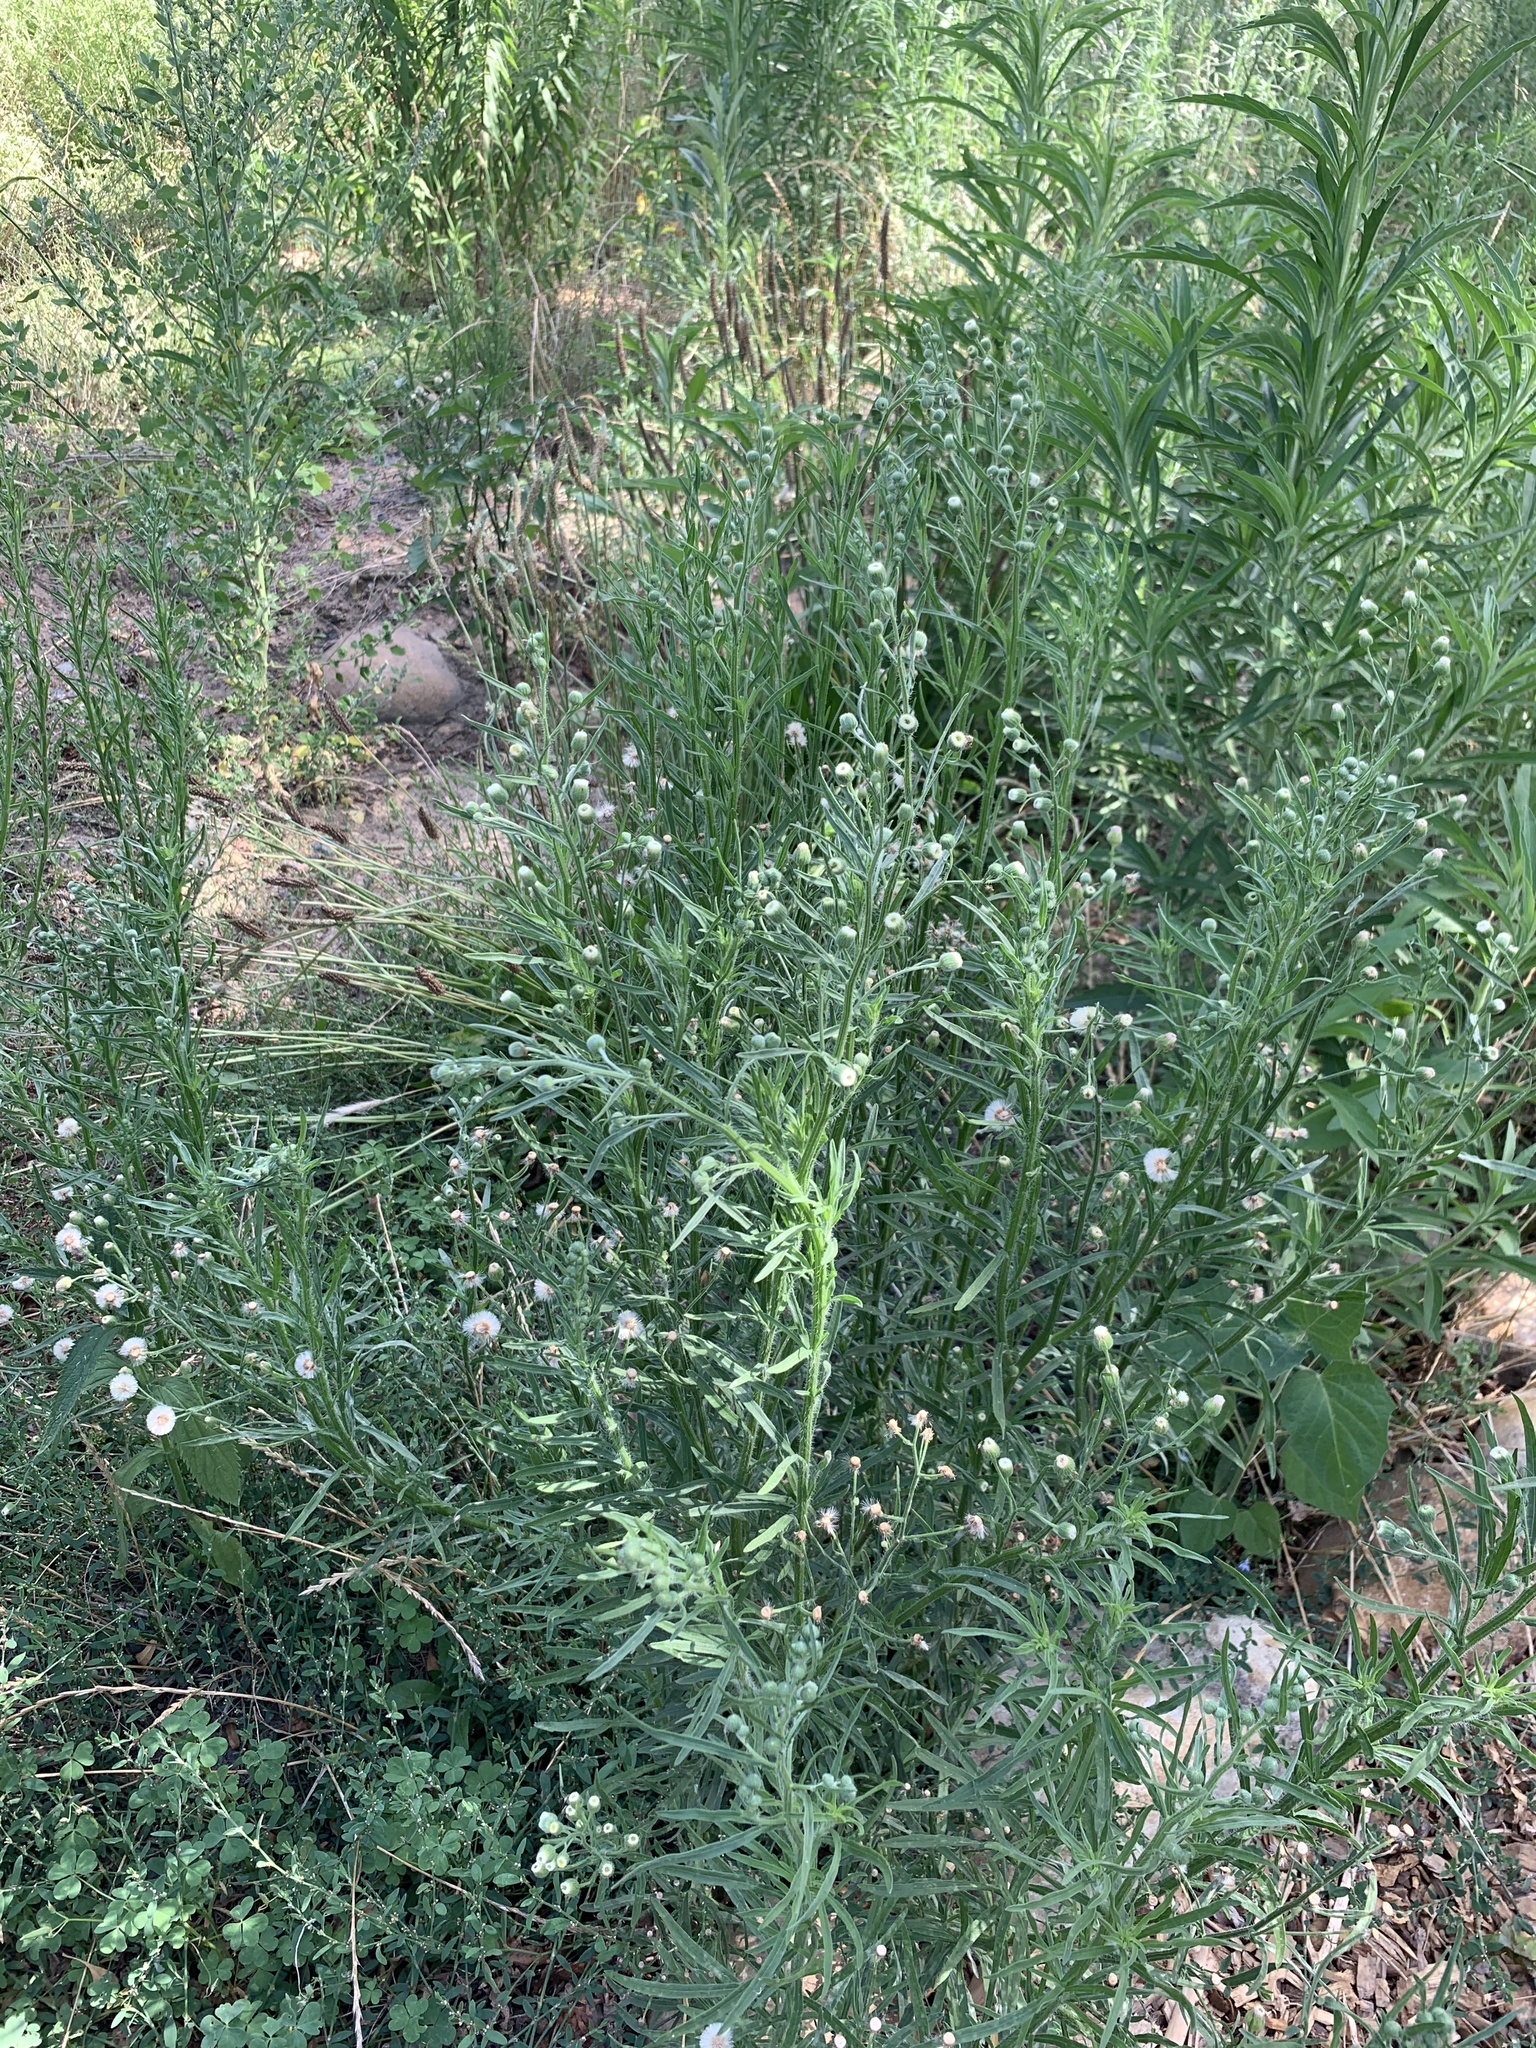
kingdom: Plantae
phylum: Tracheophyta
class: Magnoliopsida
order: Asterales
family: Asteraceae
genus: Erigeron
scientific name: Erigeron bonariensis
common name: Argentine fleabane
